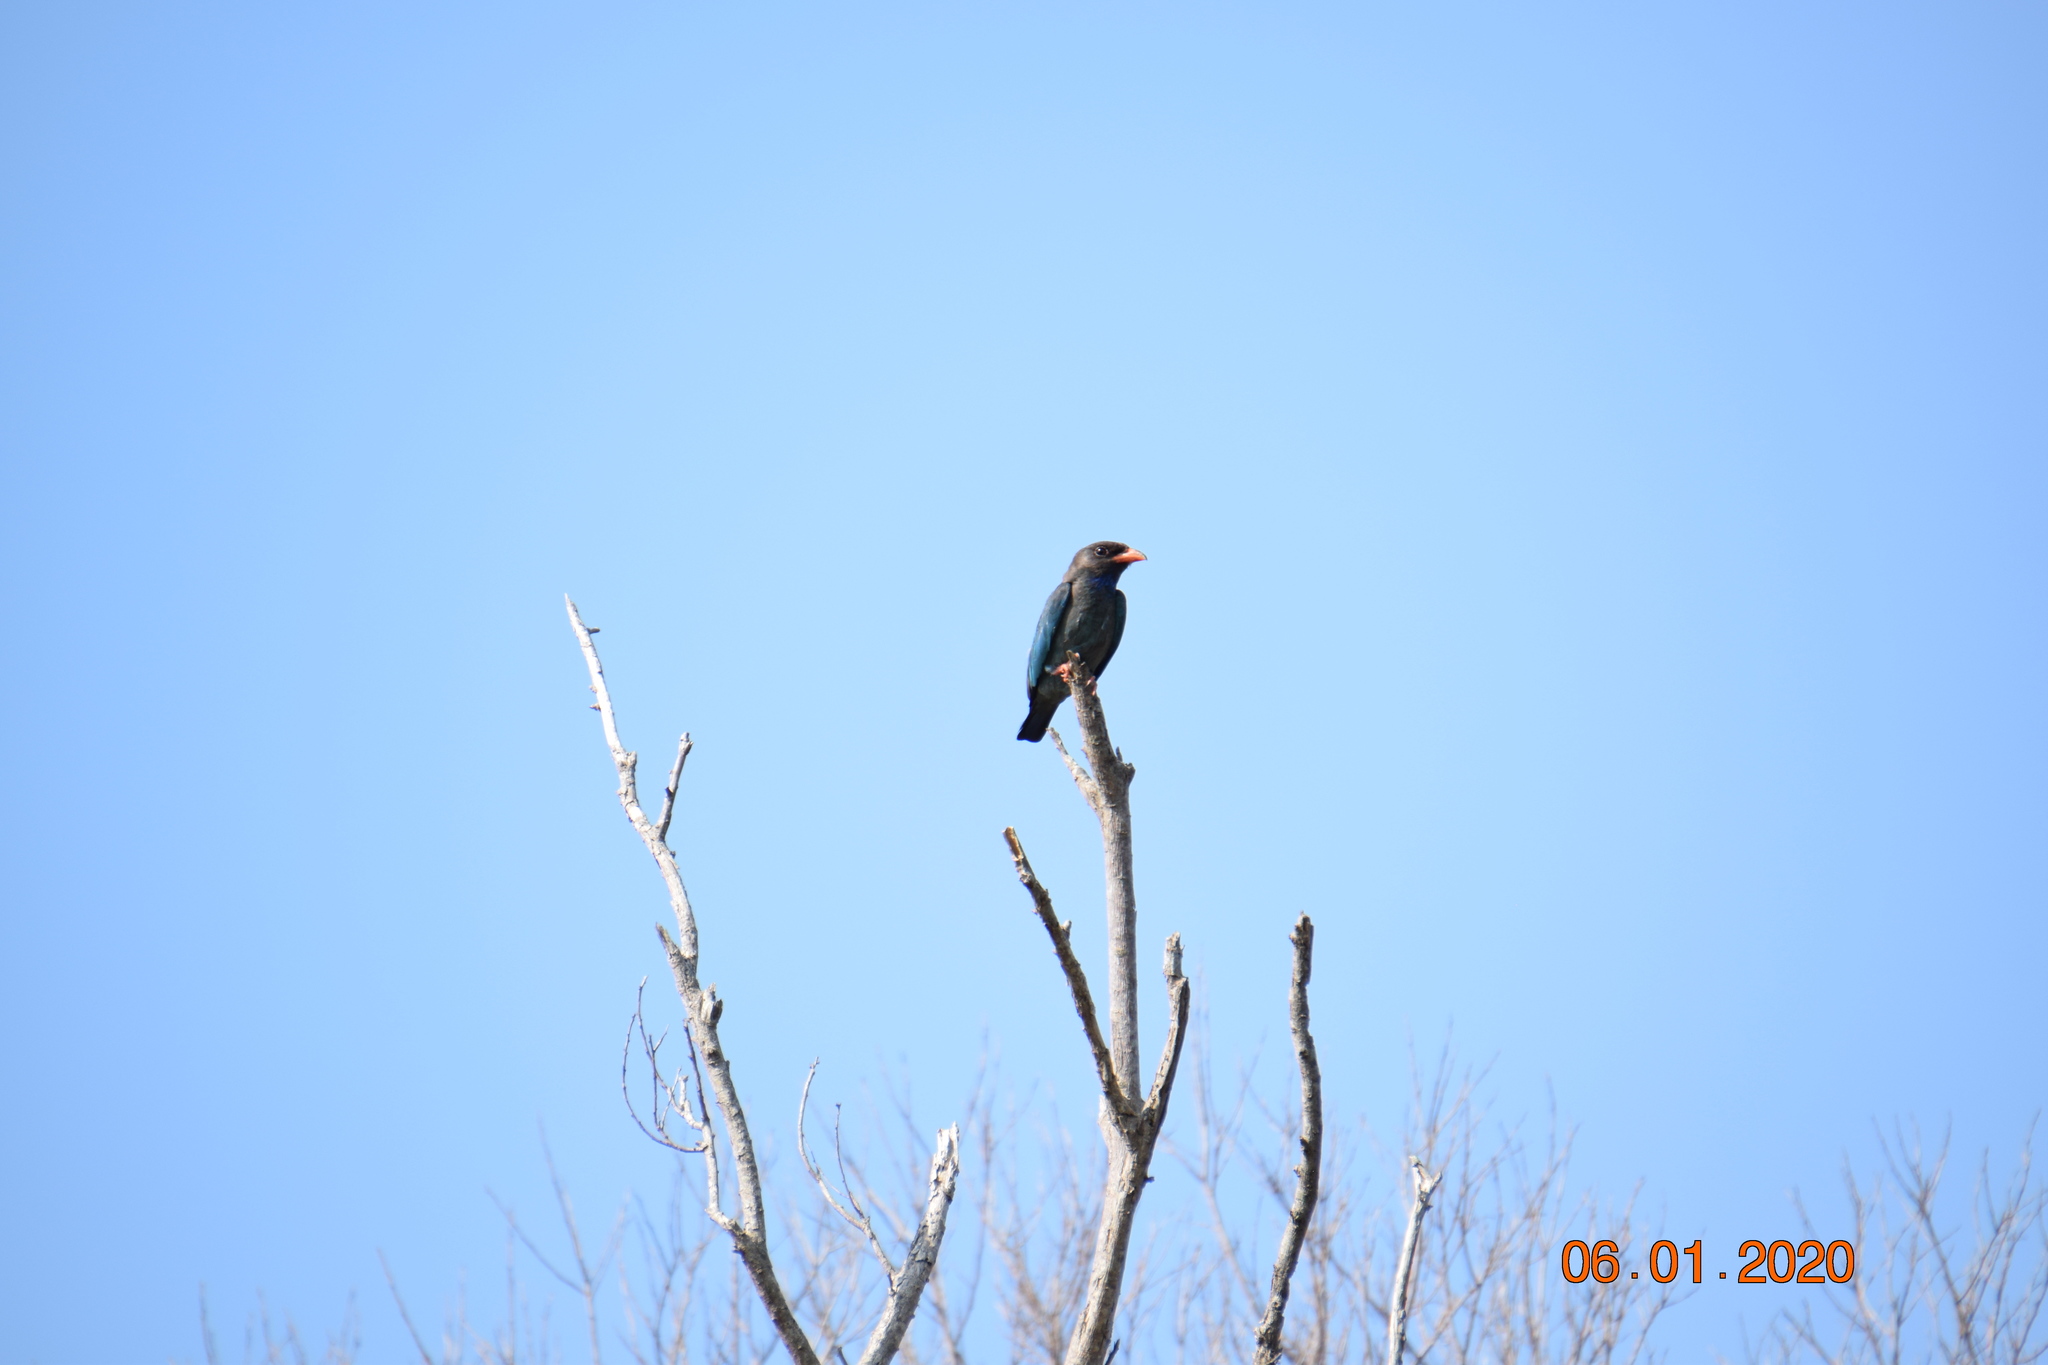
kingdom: Animalia
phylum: Chordata
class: Aves
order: Coraciiformes
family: Coraciidae
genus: Eurystomus
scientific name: Eurystomus orientalis
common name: Oriental dollarbird
